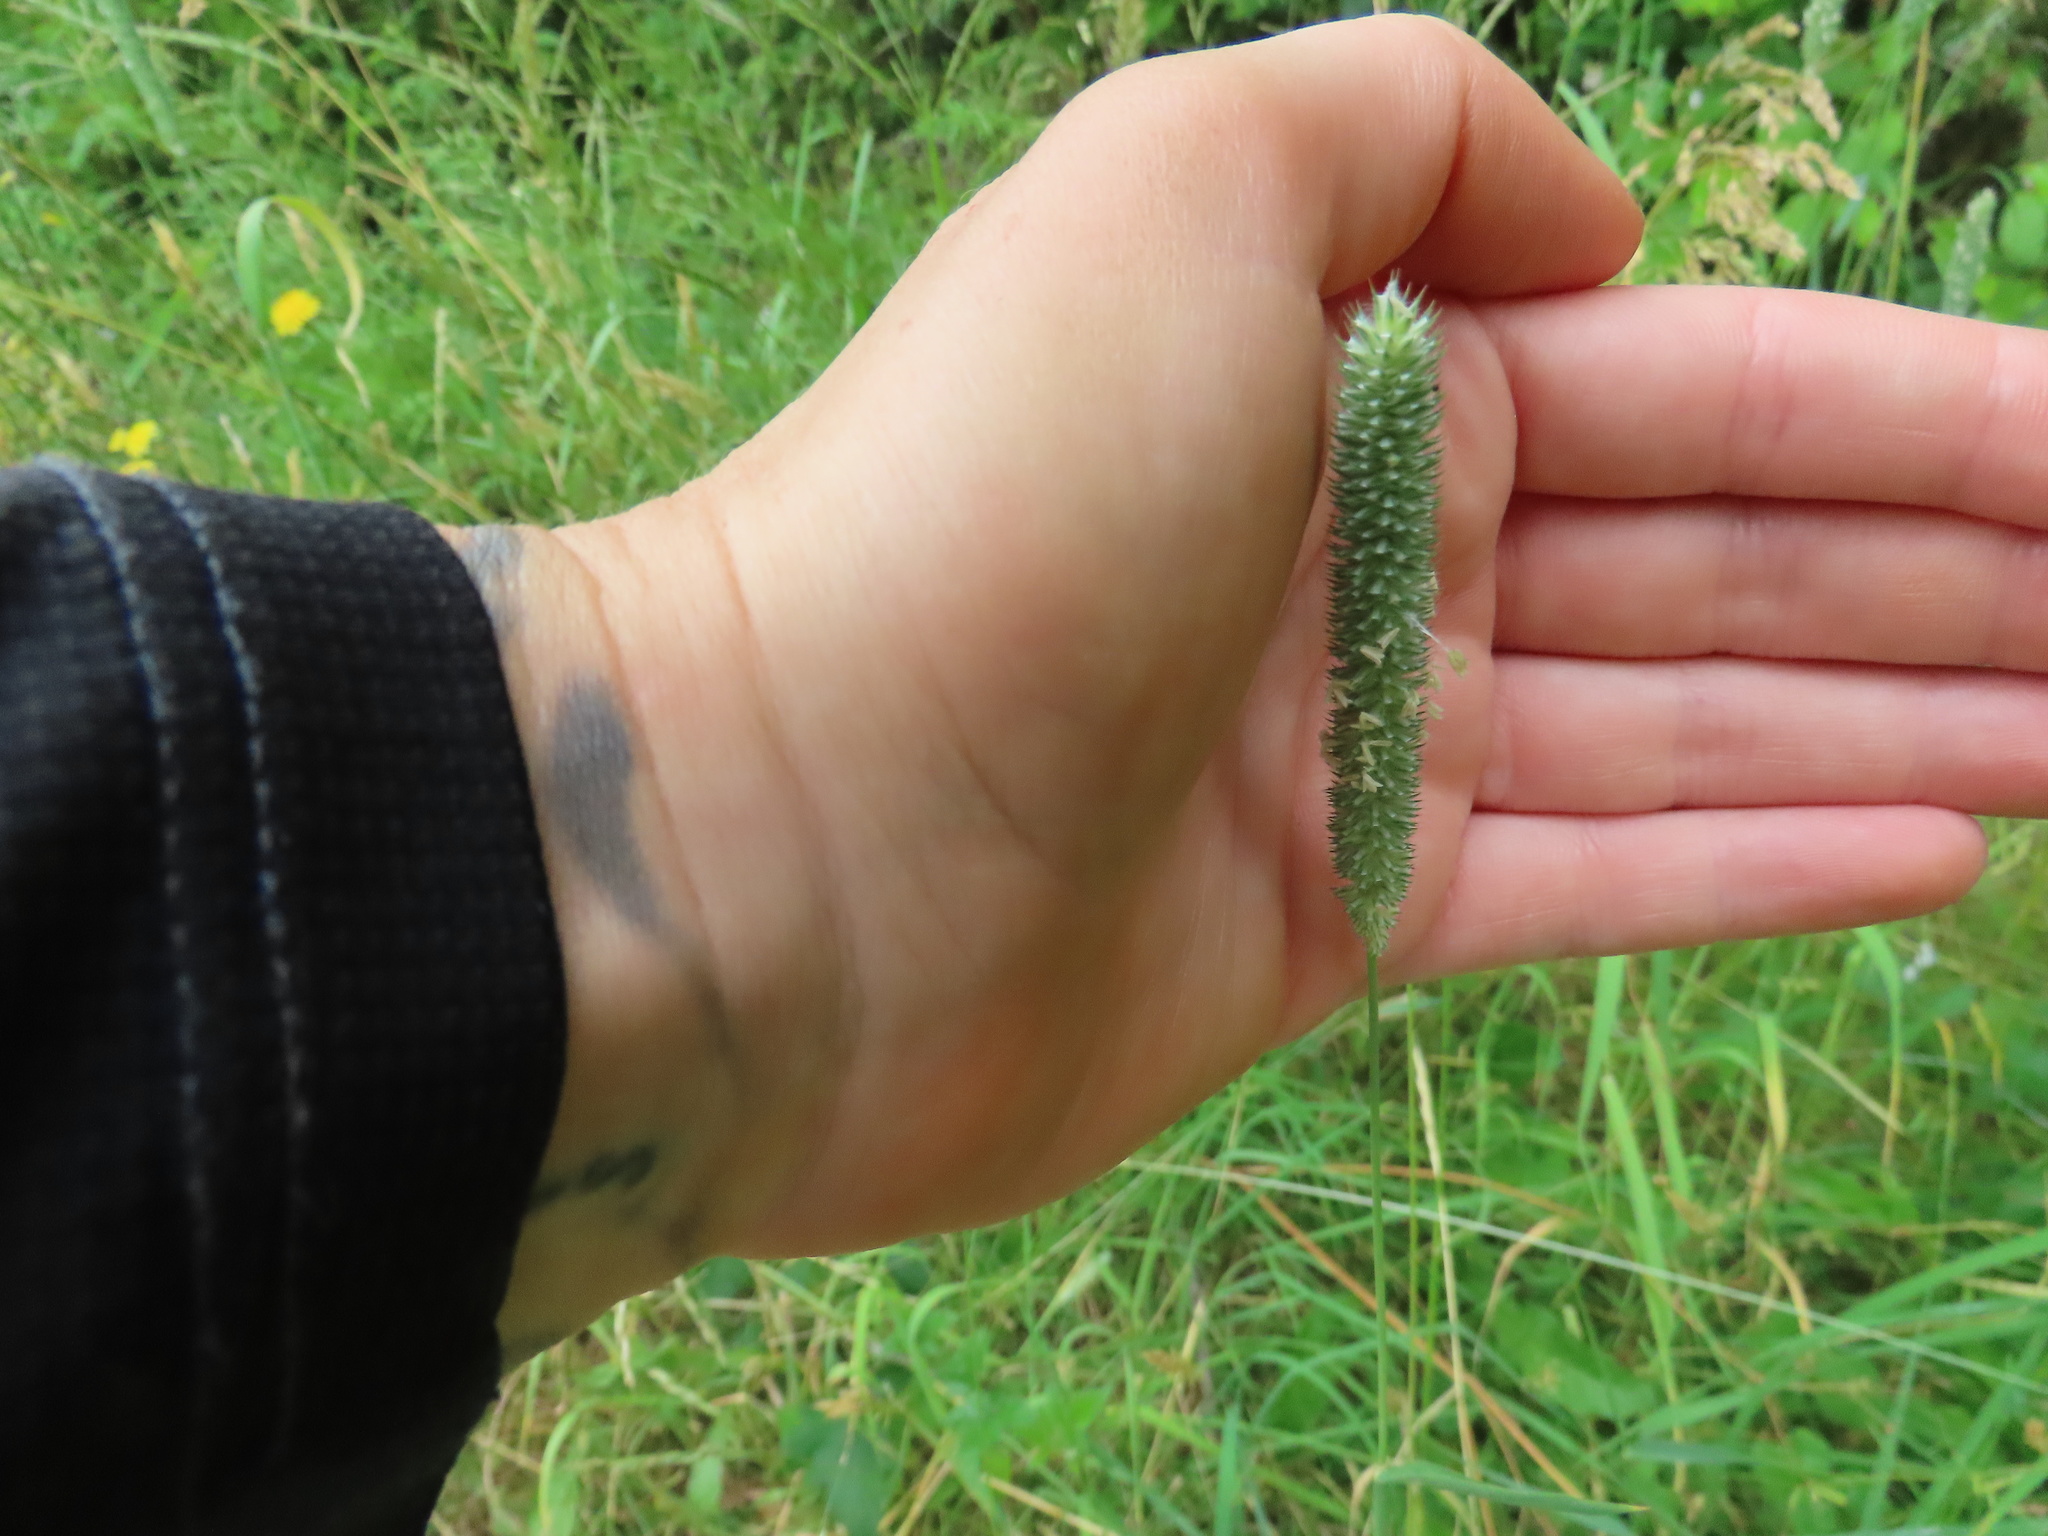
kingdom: Plantae
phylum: Tracheophyta
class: Liliopsida
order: Poales
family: Poaceae
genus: Phleum
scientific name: Phleum pratense
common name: Timothy grass
